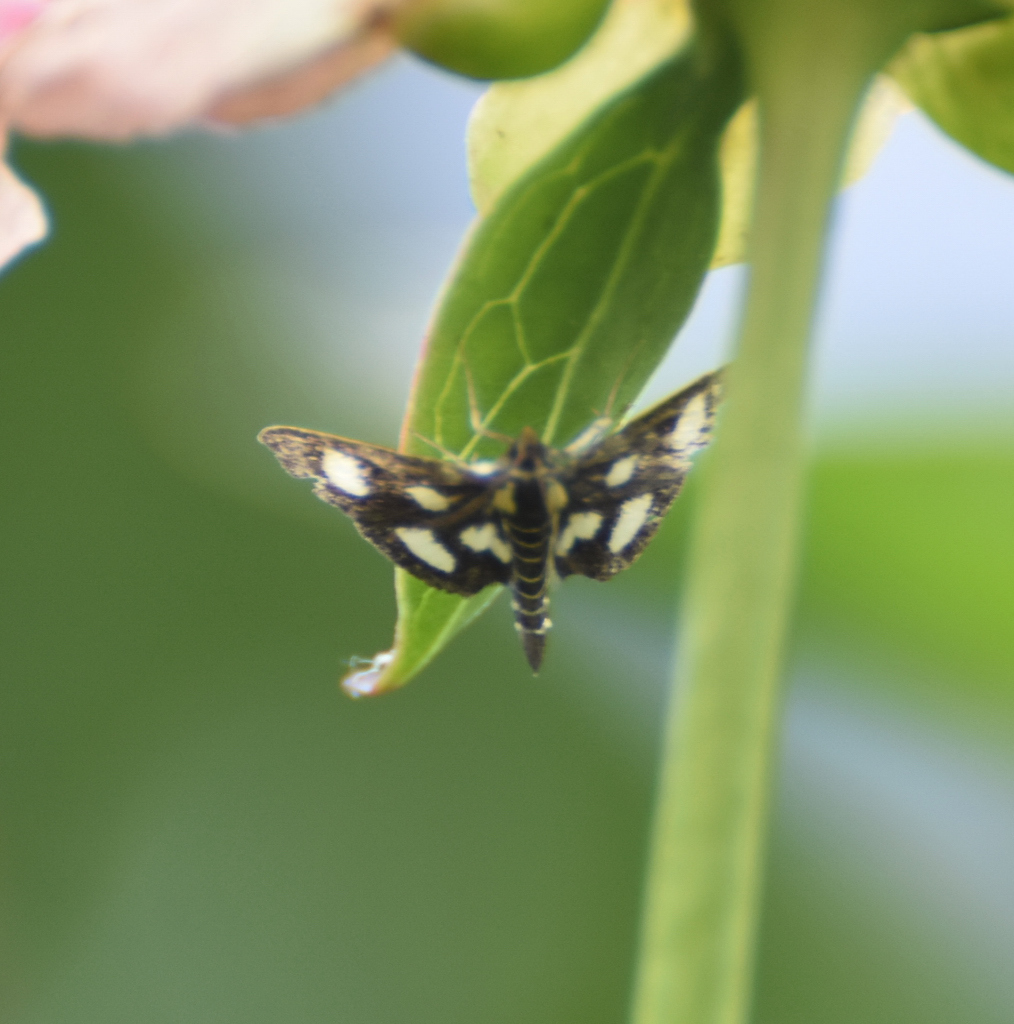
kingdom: Animalia
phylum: Arthropoda
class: Insecta
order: Lepidoptera
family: Crambidae
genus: Anania
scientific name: Anania funebris
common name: White-spotted sable moth
